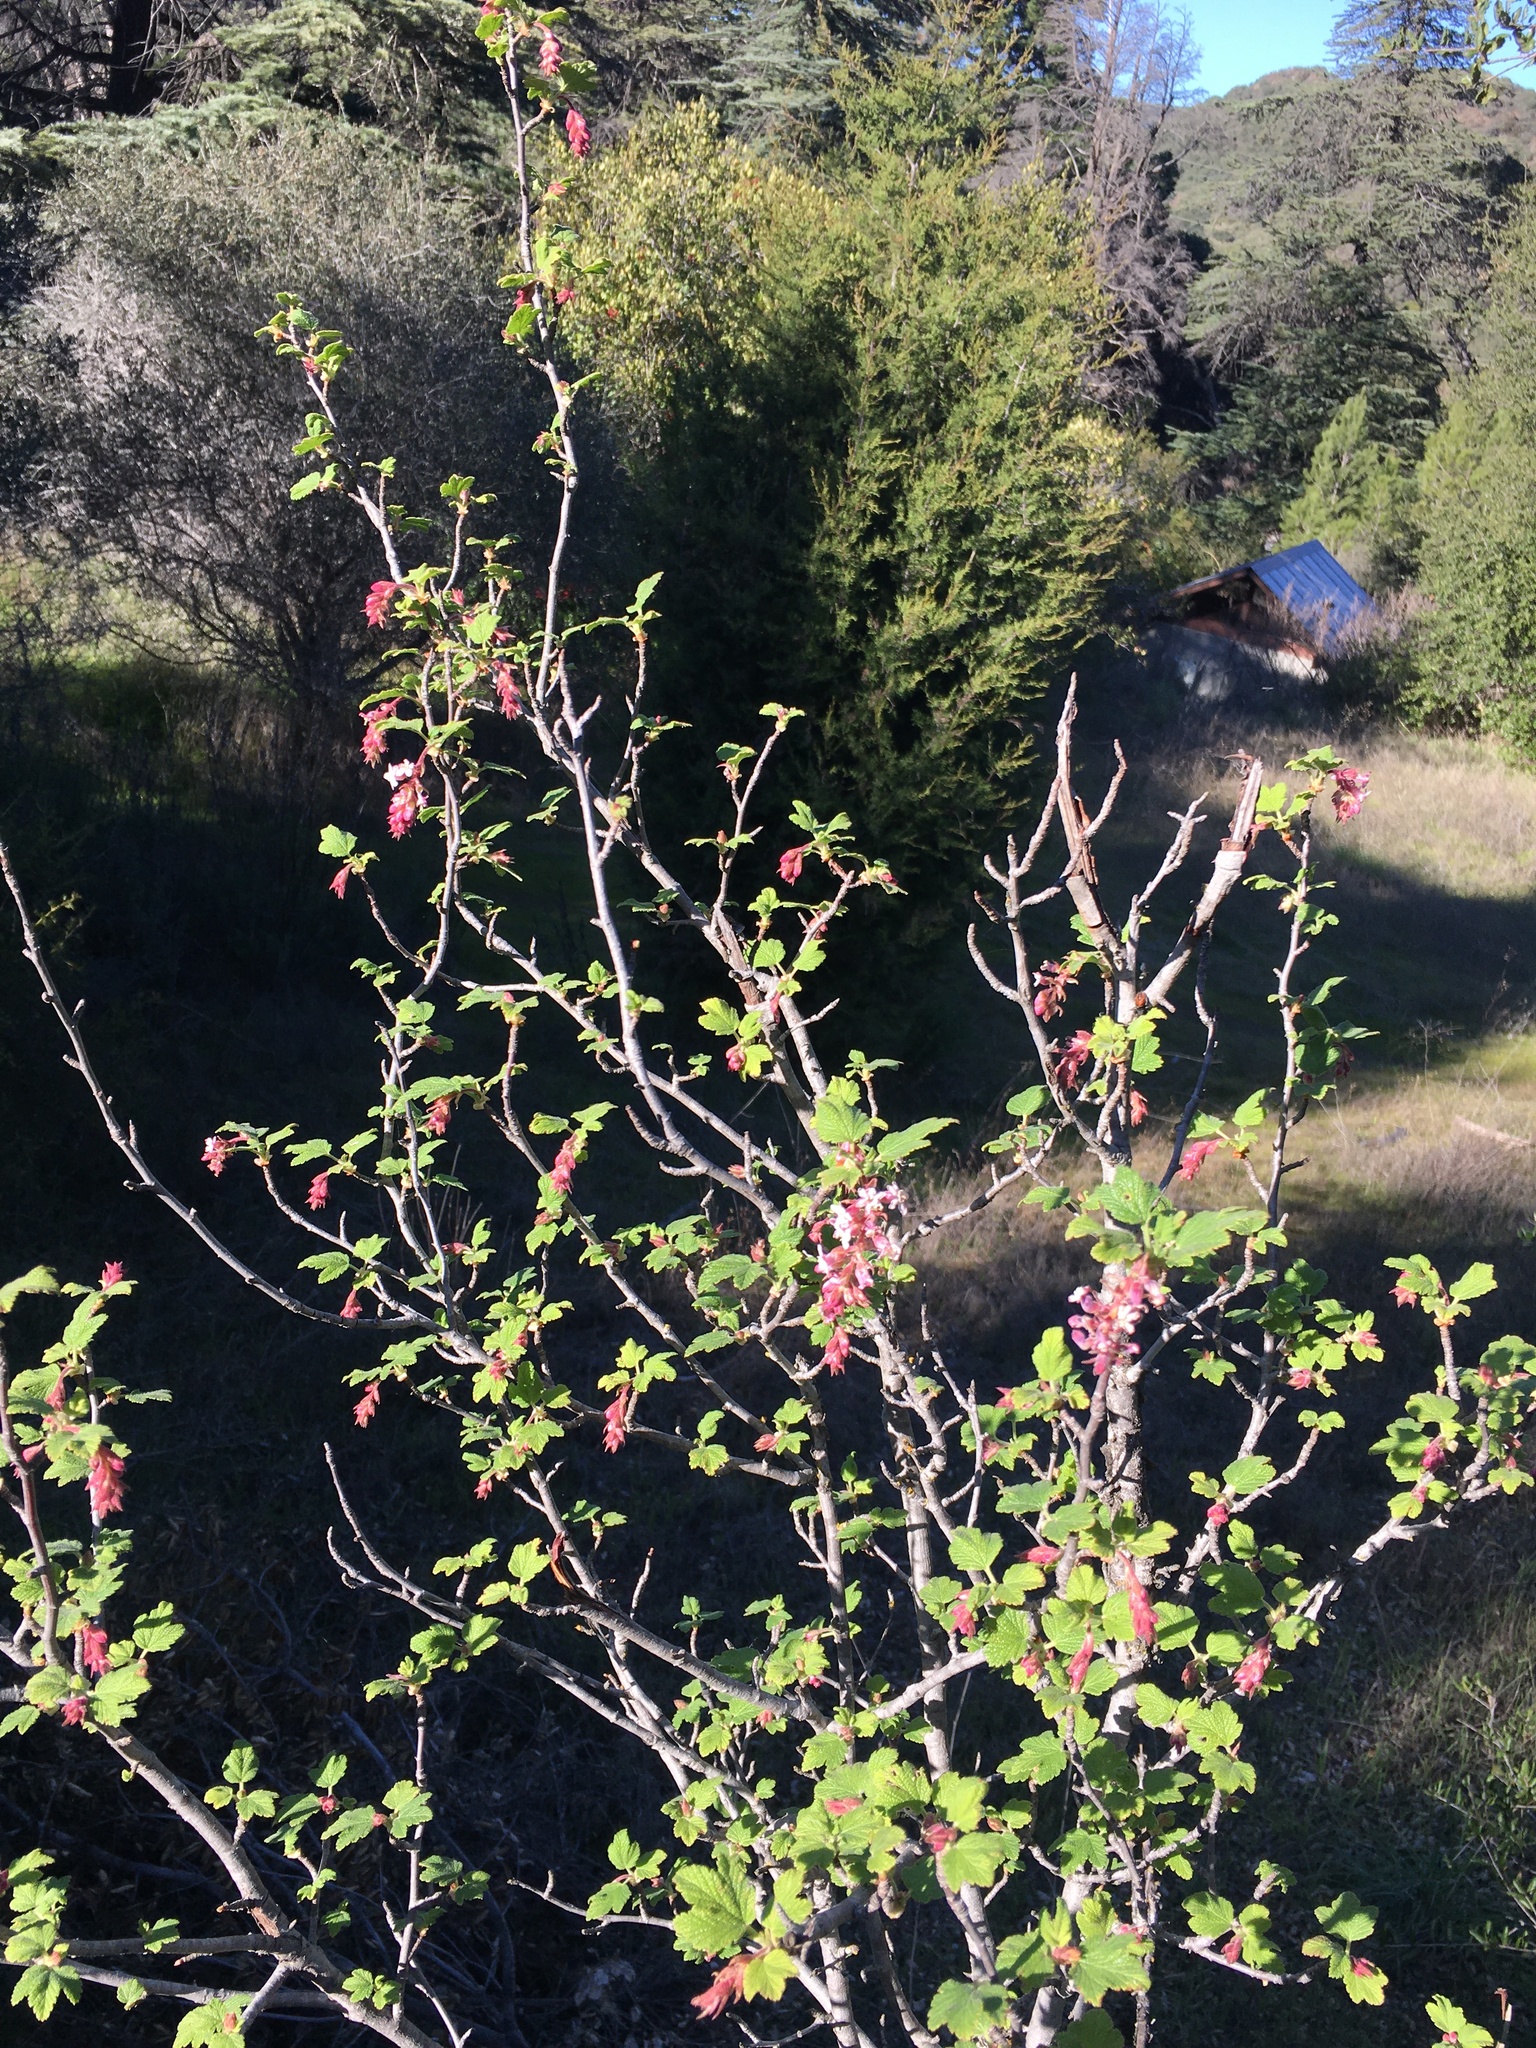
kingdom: Plantae
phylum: Tracheophyta
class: Magnoliopsida
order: Saxifragales
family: Grossulariaceae
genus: Ribes
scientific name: Ribes malvaceum
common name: Chaparral currant
